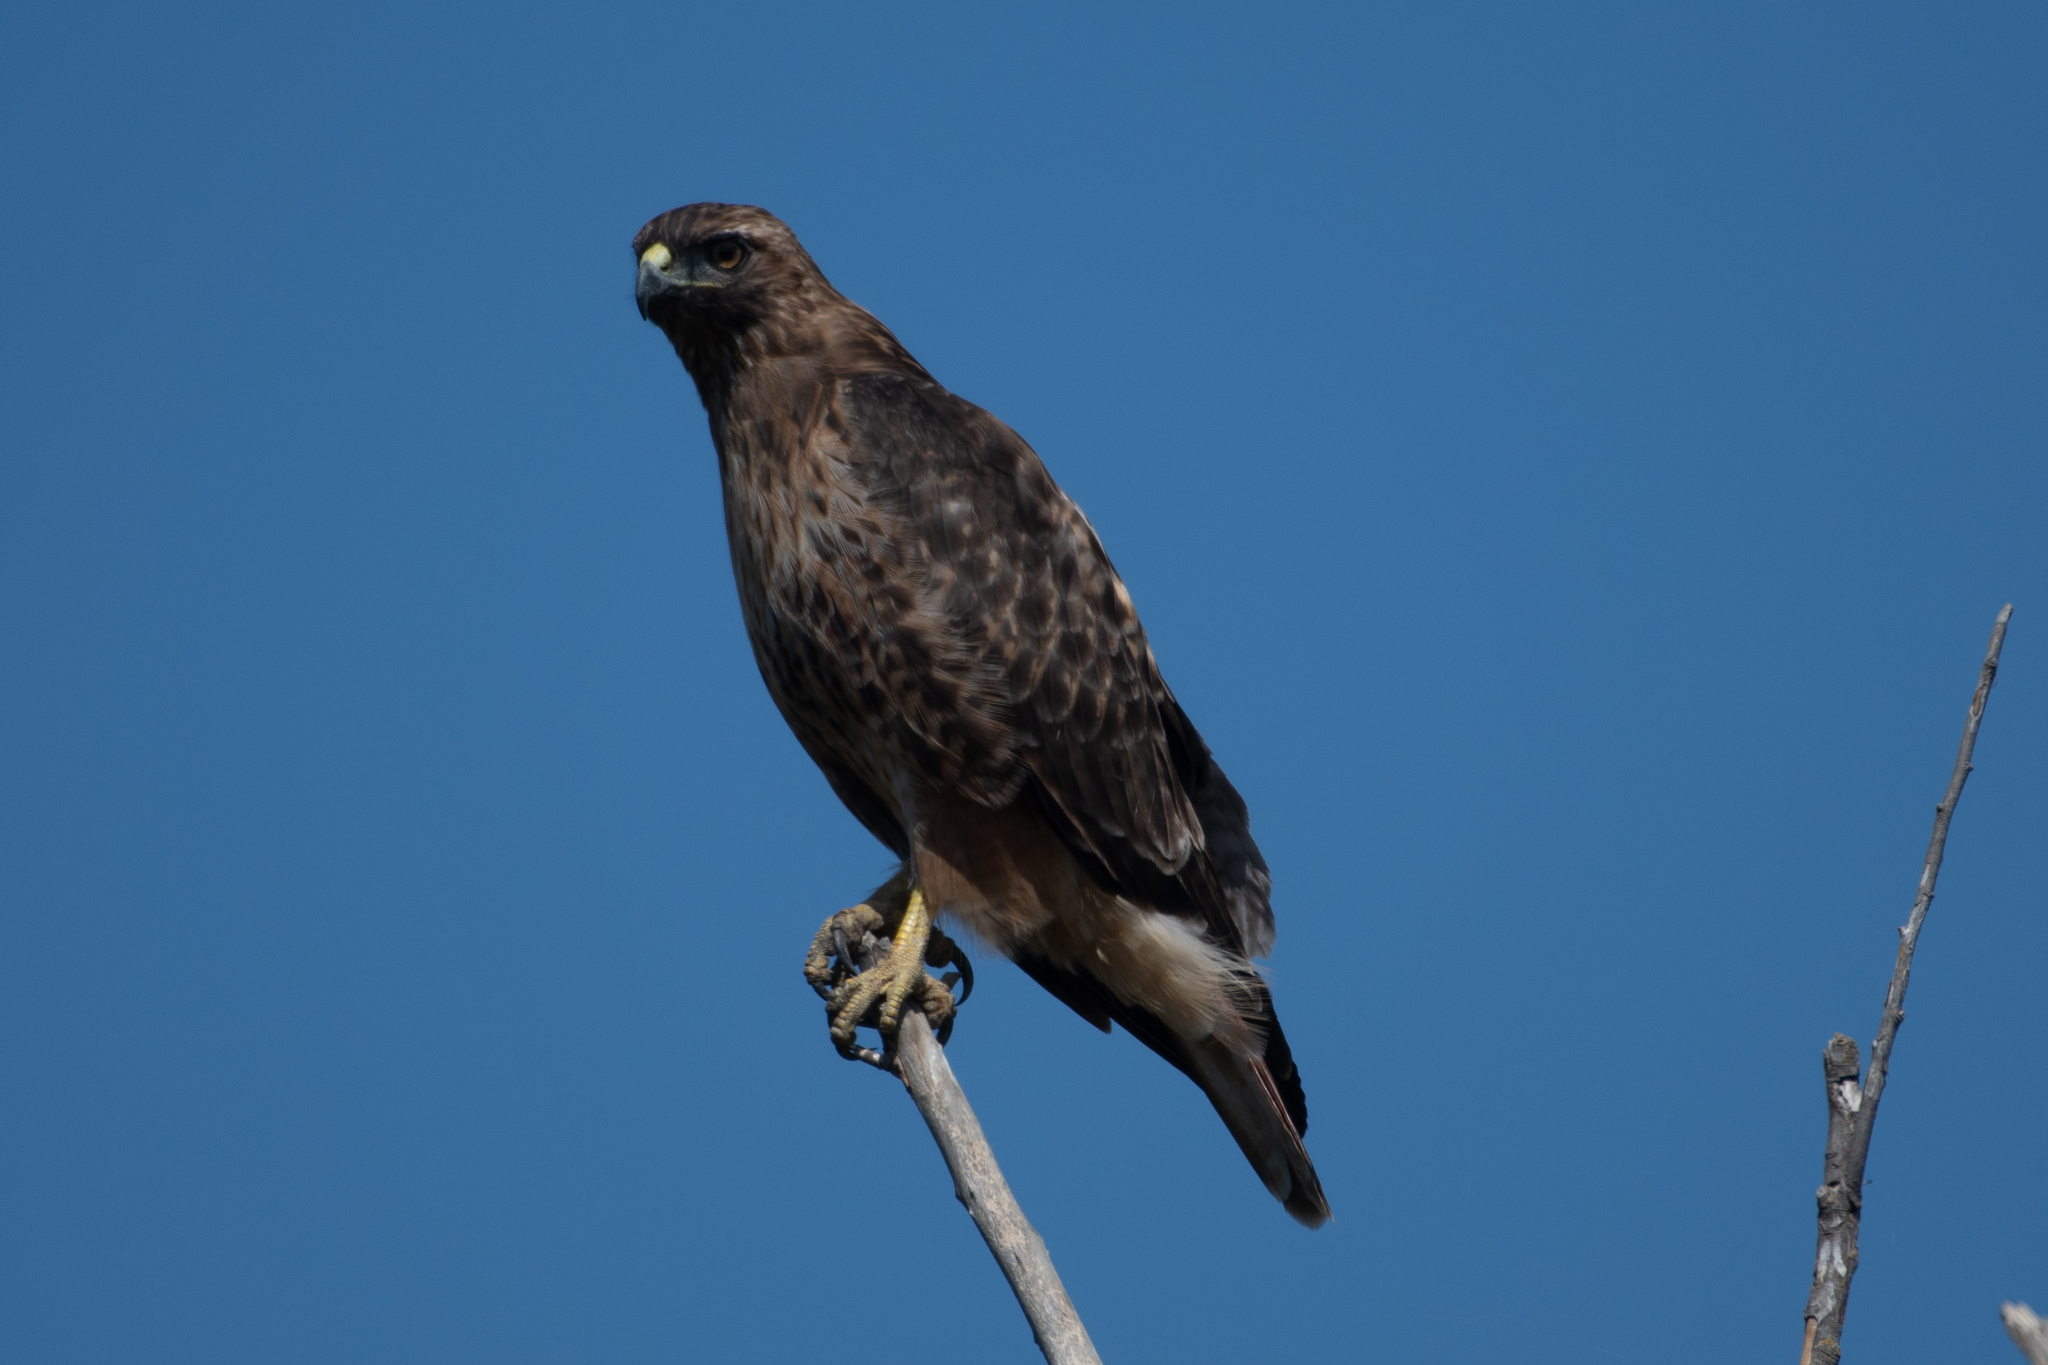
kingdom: Animalia
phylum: Chordata
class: Aves
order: Accipitriformes
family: Accipitridae
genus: Buteo
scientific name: Buteo jamaicensis
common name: Red-tailed hawk
